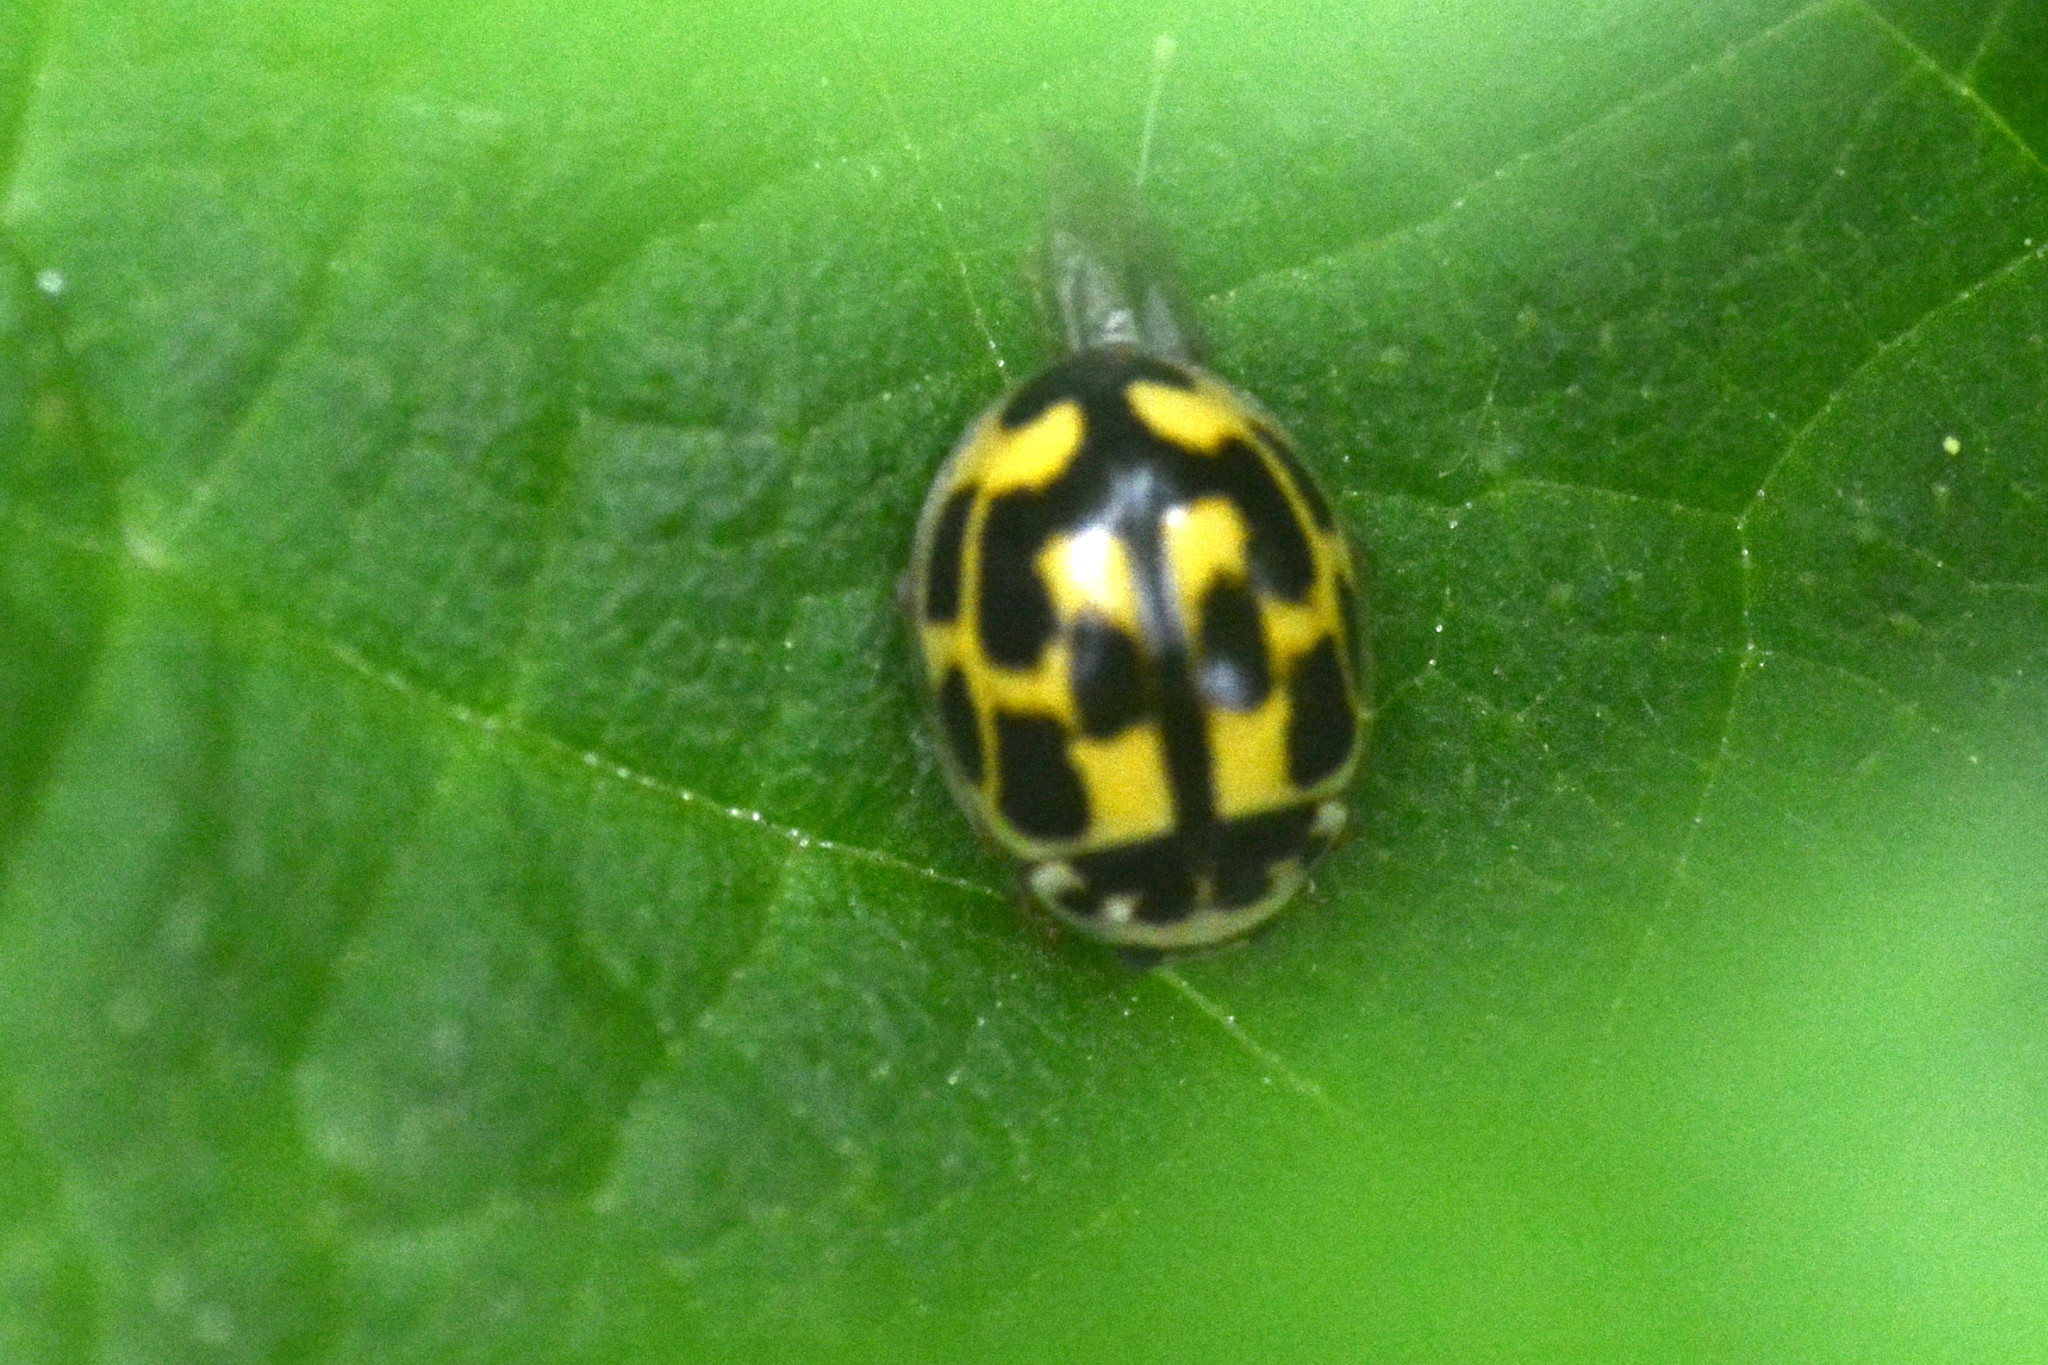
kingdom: Animalia
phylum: Arthropoda
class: Insecta
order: Coleoptera
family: Coccinellidae
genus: Propylaea
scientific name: Propylaea quatuordecimpunctata
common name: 14-spotted ladybird beetle
